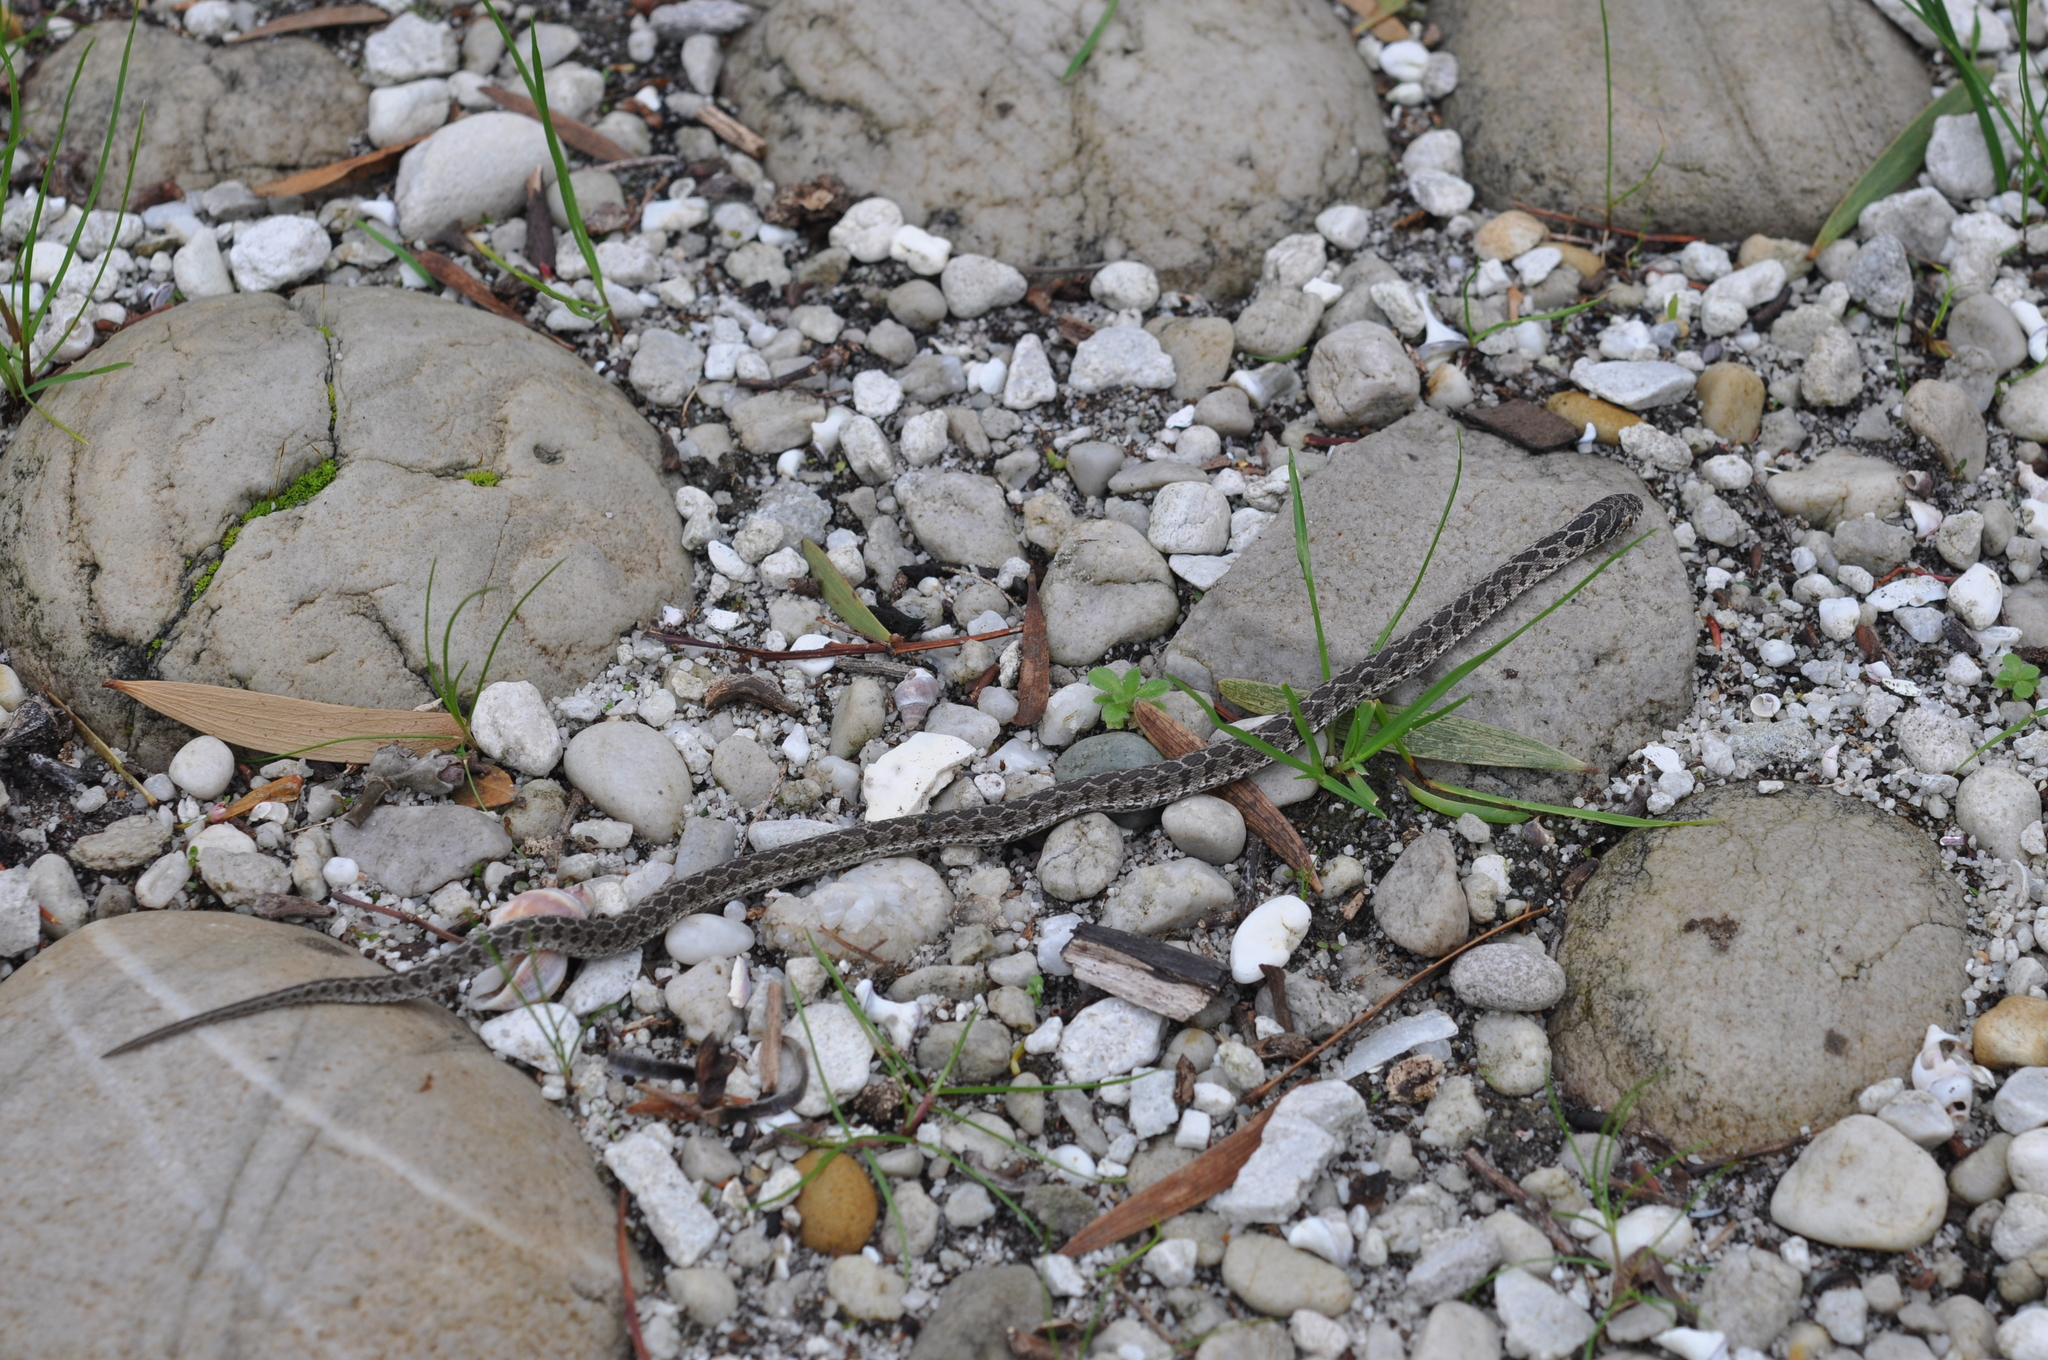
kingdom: Animalia
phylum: Chordata
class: Squamata
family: Colubridae
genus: Dasypeltis
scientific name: Dasypeltis scabra
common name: Common egg eater
